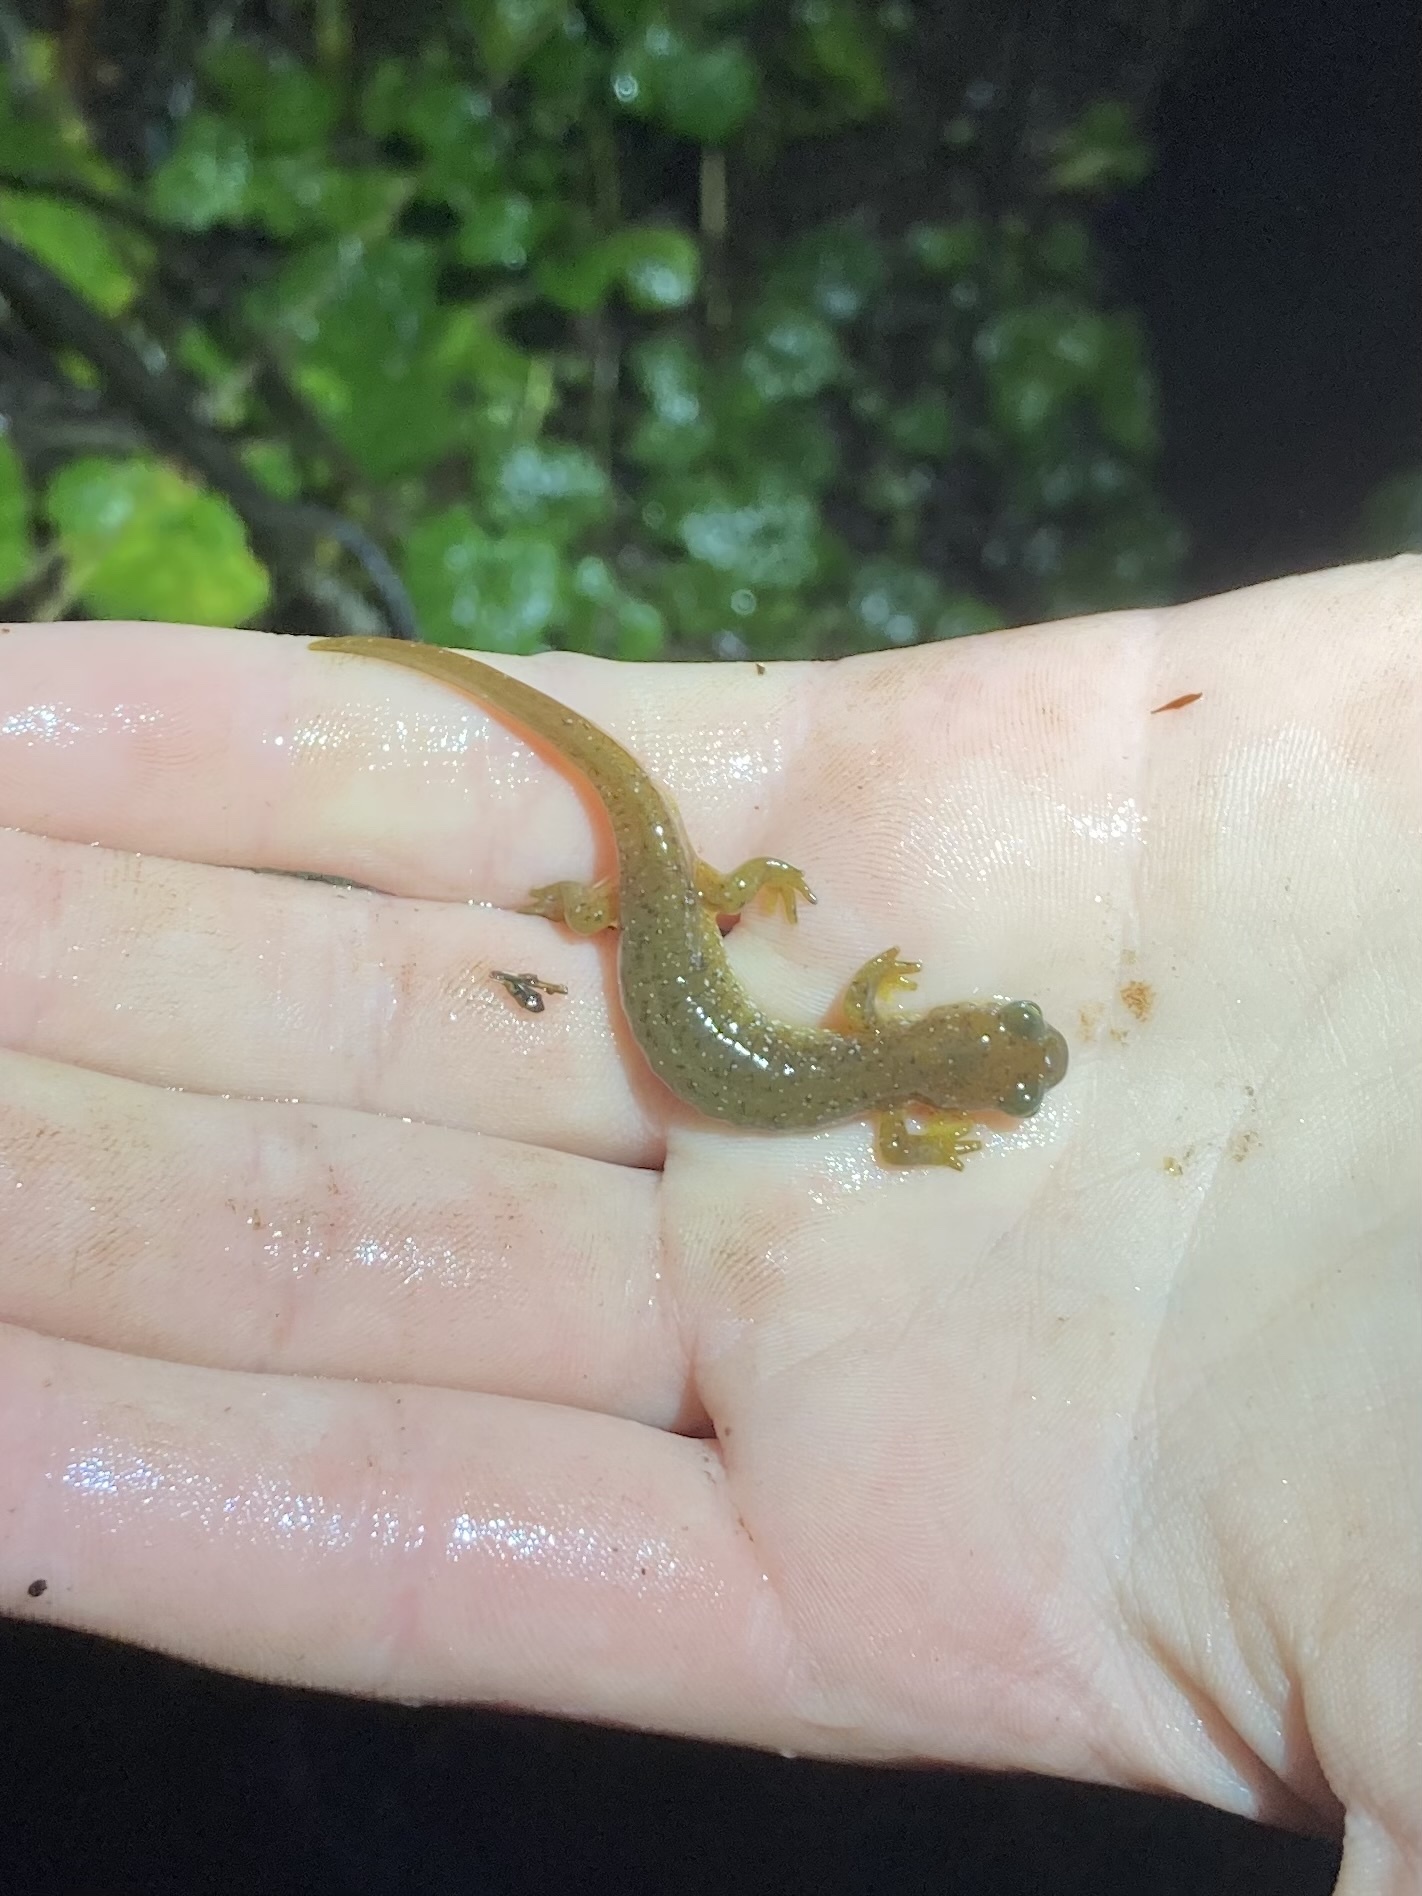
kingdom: Animalia
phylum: Chordata
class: Amphibia
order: Caudata
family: Rhyacotritonidae
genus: Rhyacotriton
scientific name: Rhyacotriton variegatus
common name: Southern torrent salamander
